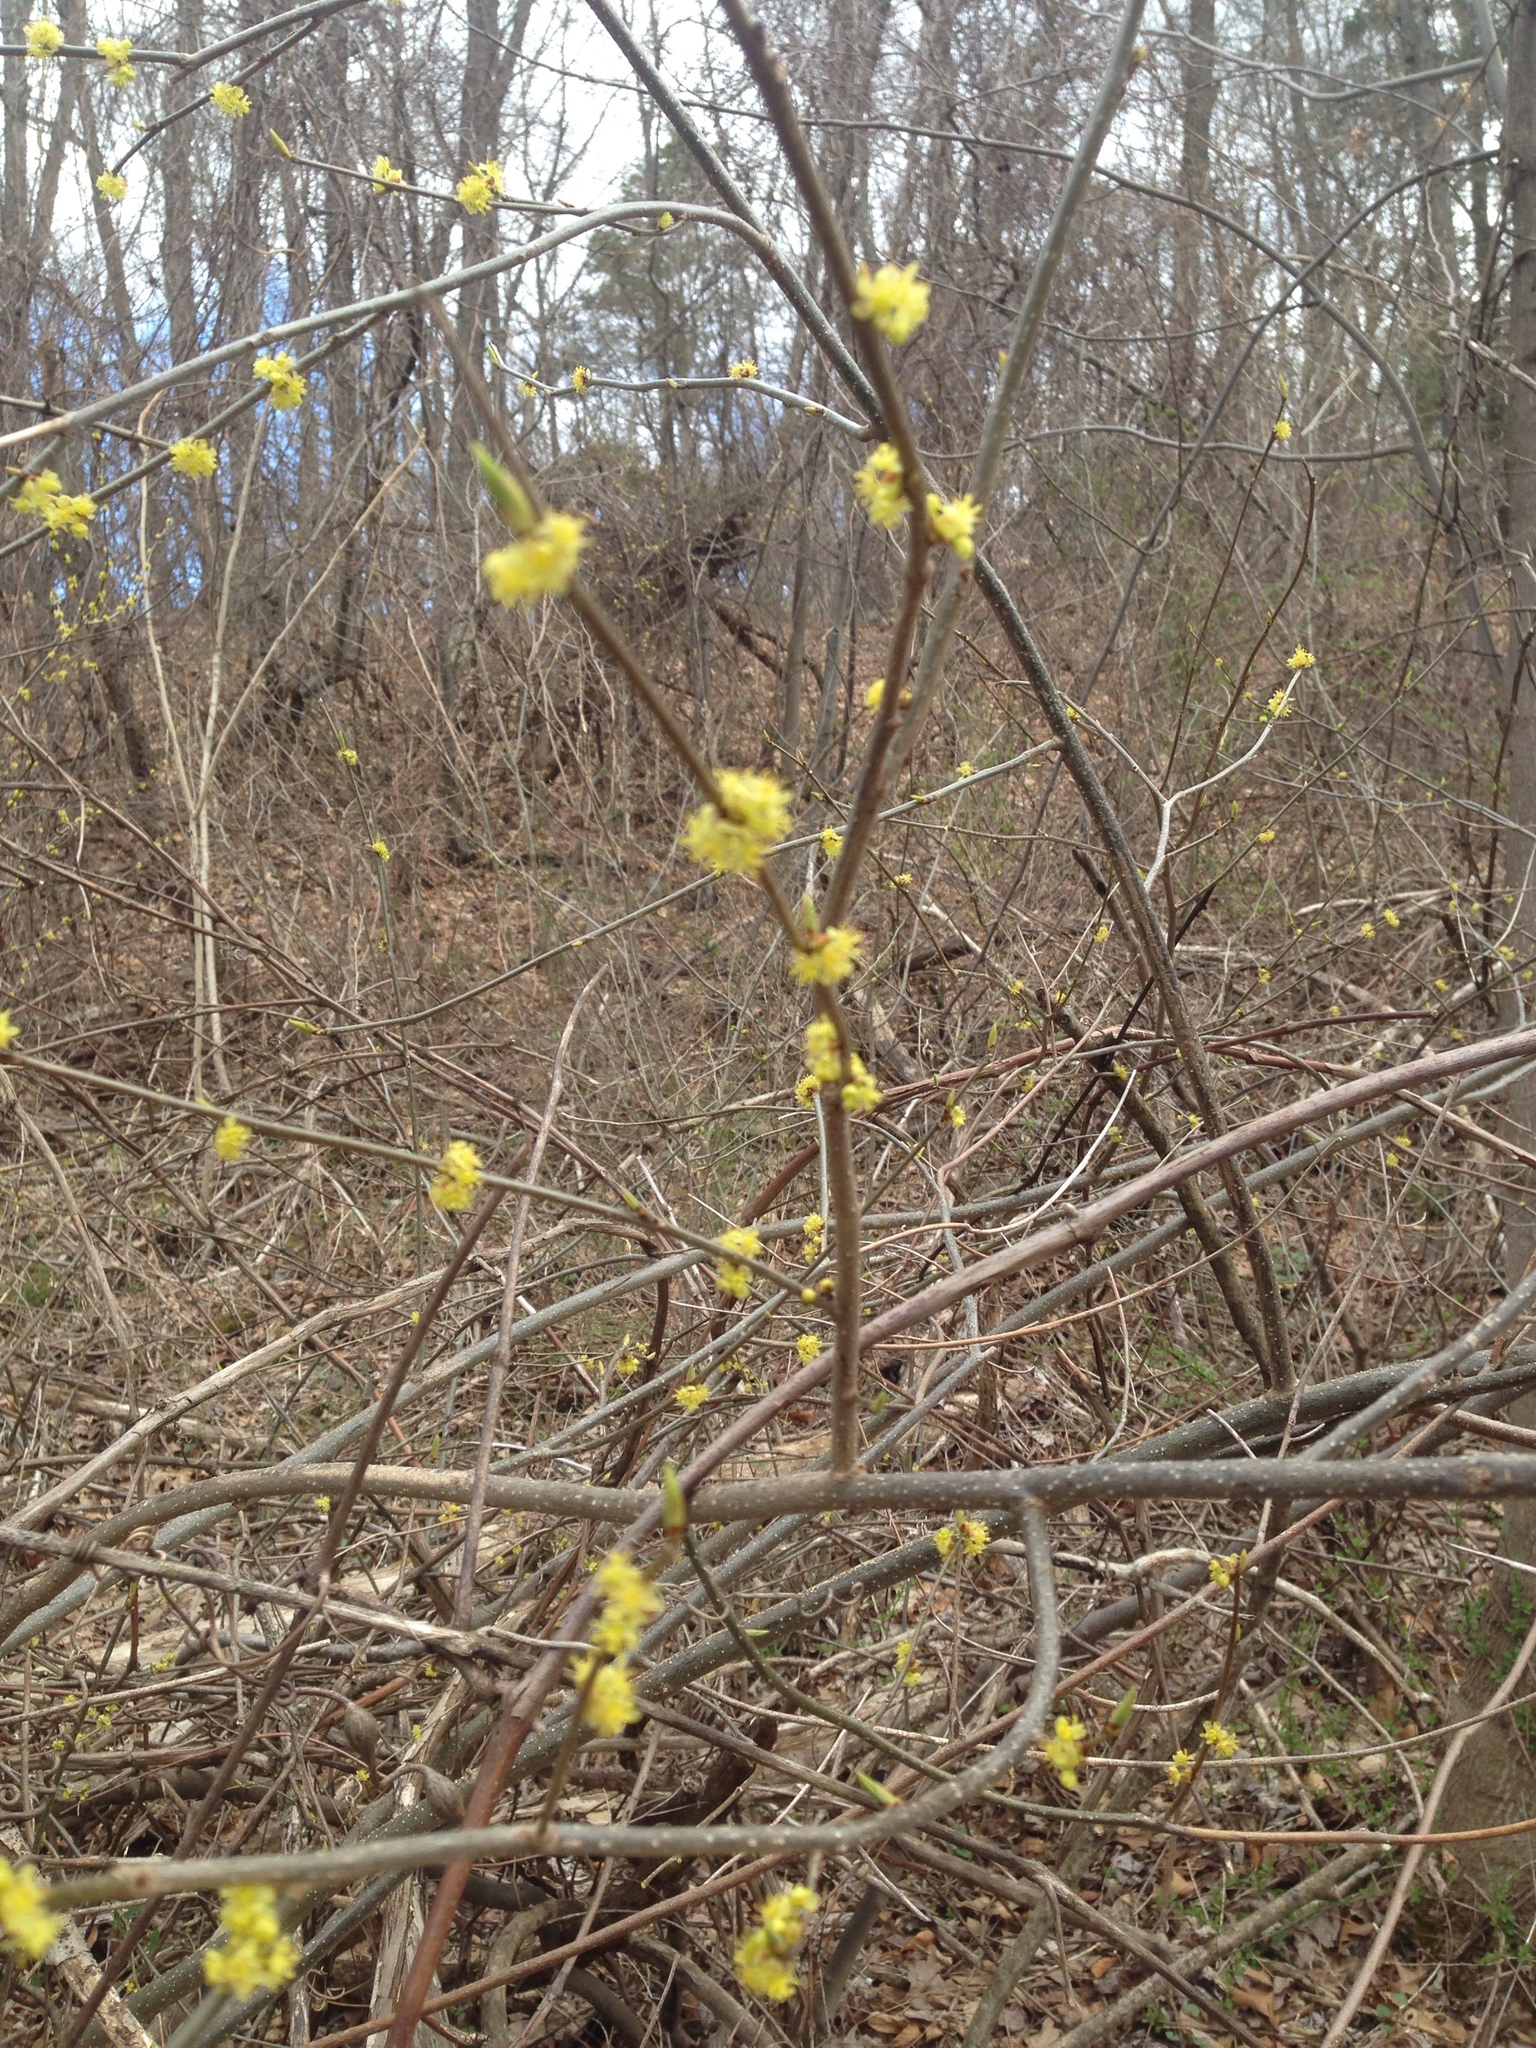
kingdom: Plantae
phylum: Tracheophyta
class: Magnoliopsida
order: Laurales
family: Lauraceae
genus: Lindera
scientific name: Lindera benzoin
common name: Spicebush
